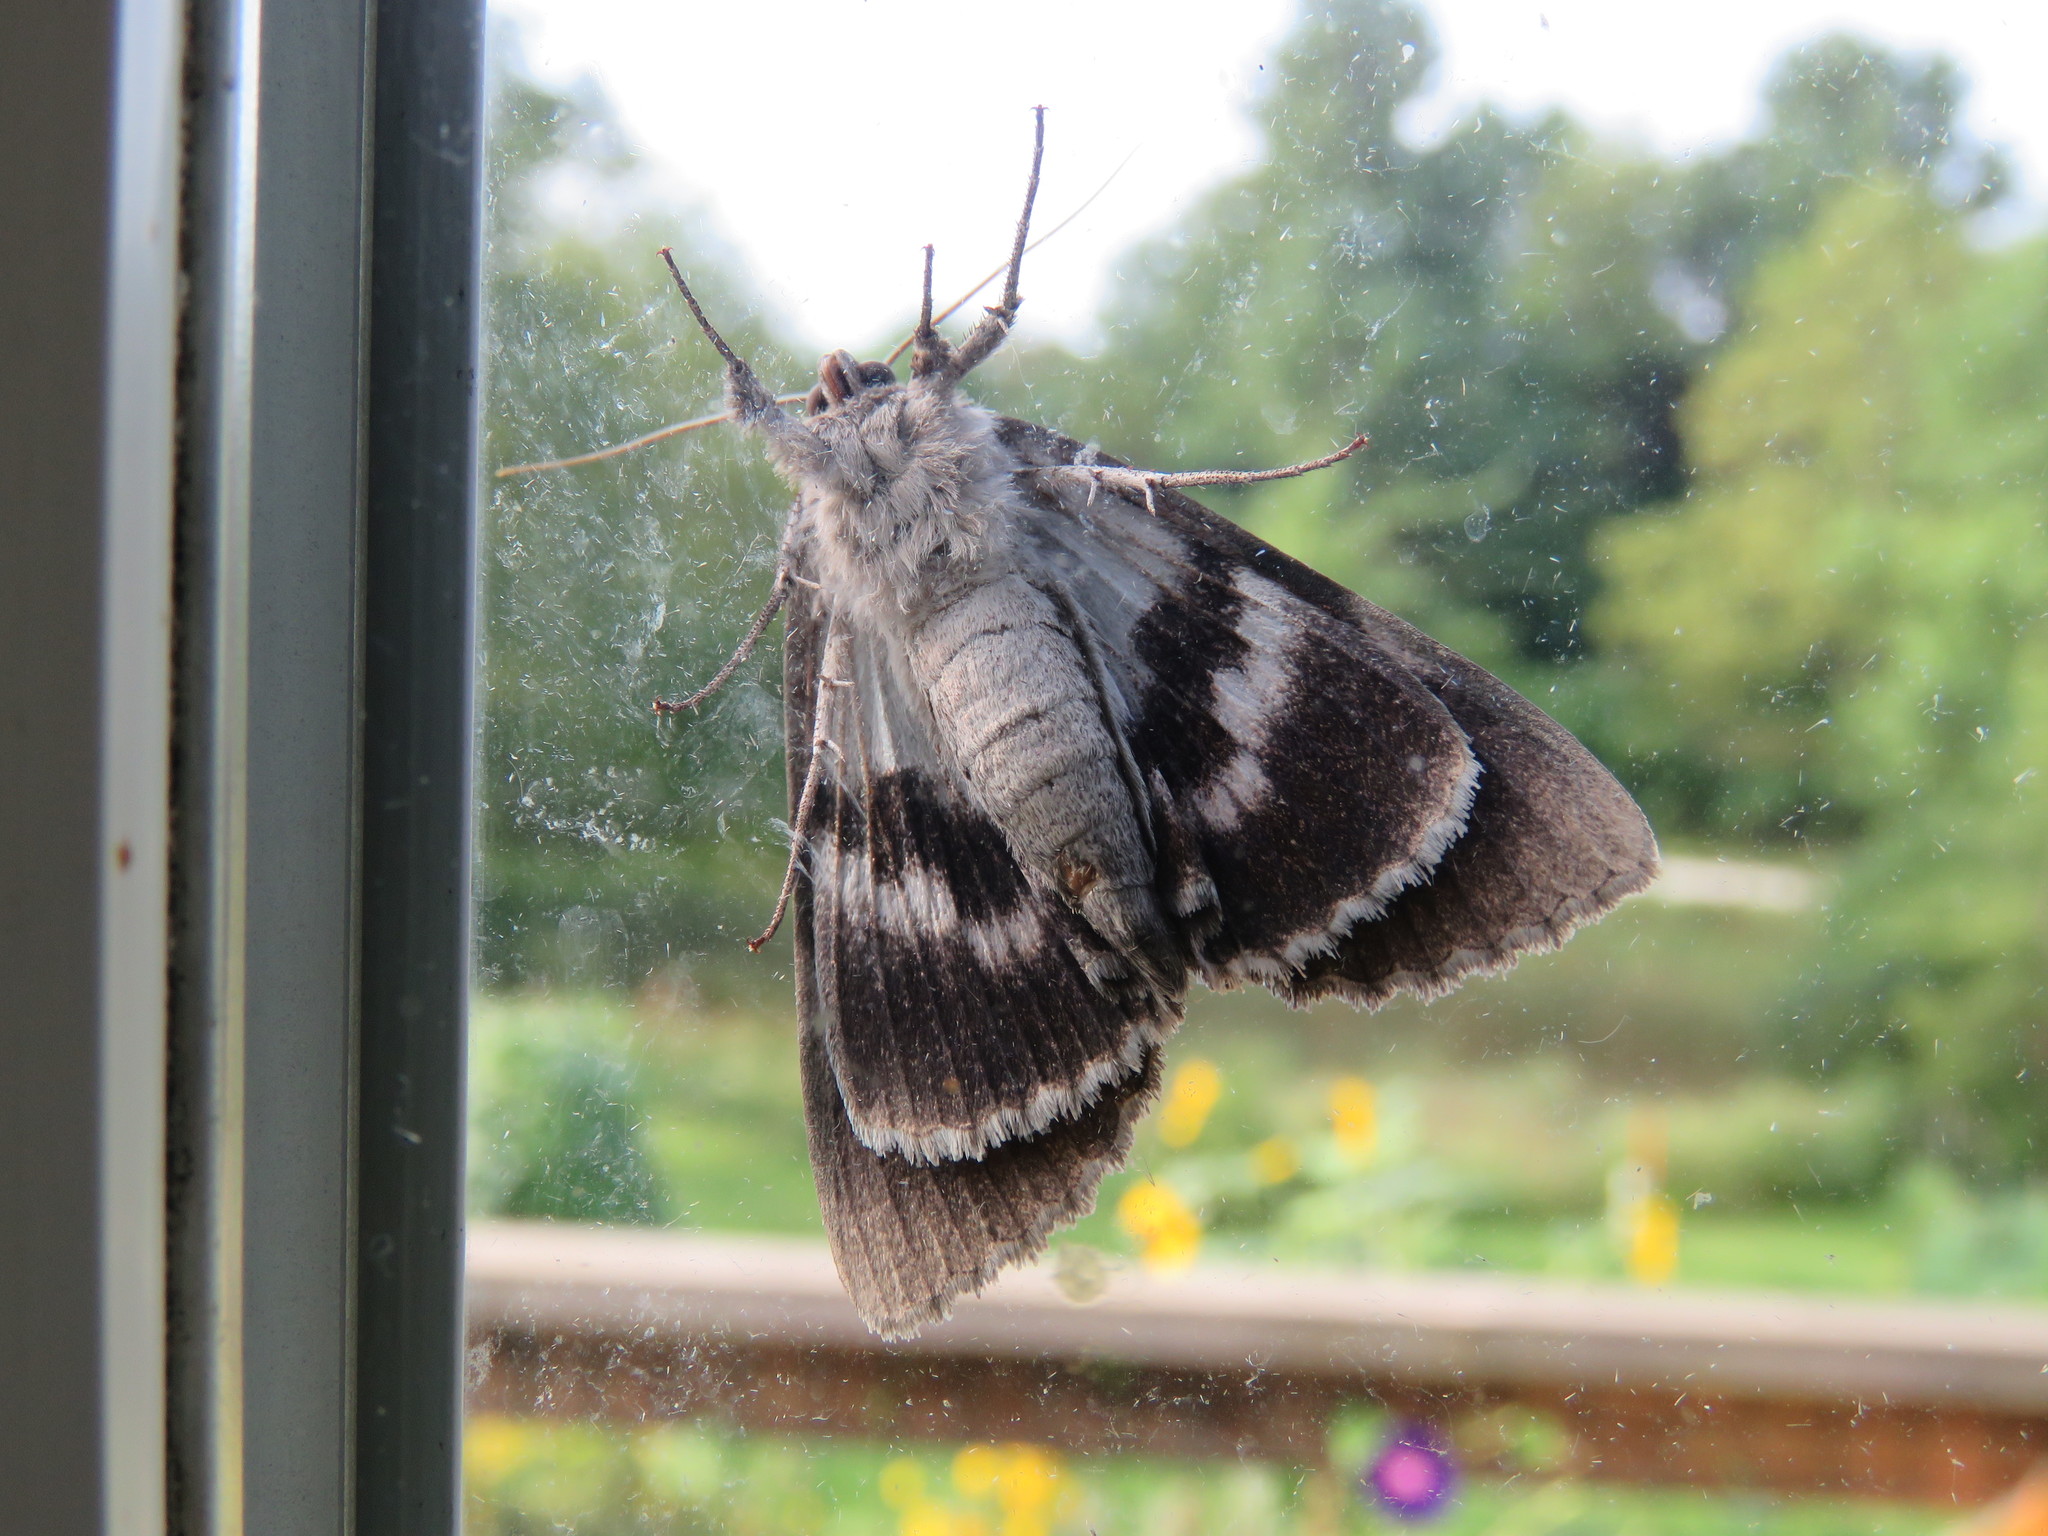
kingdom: Animalia
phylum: Arthropoda
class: Insecta
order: Lepidoptera
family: Erebidae
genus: Catocala
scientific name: Catocala obscura
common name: Obscure underwing moth
